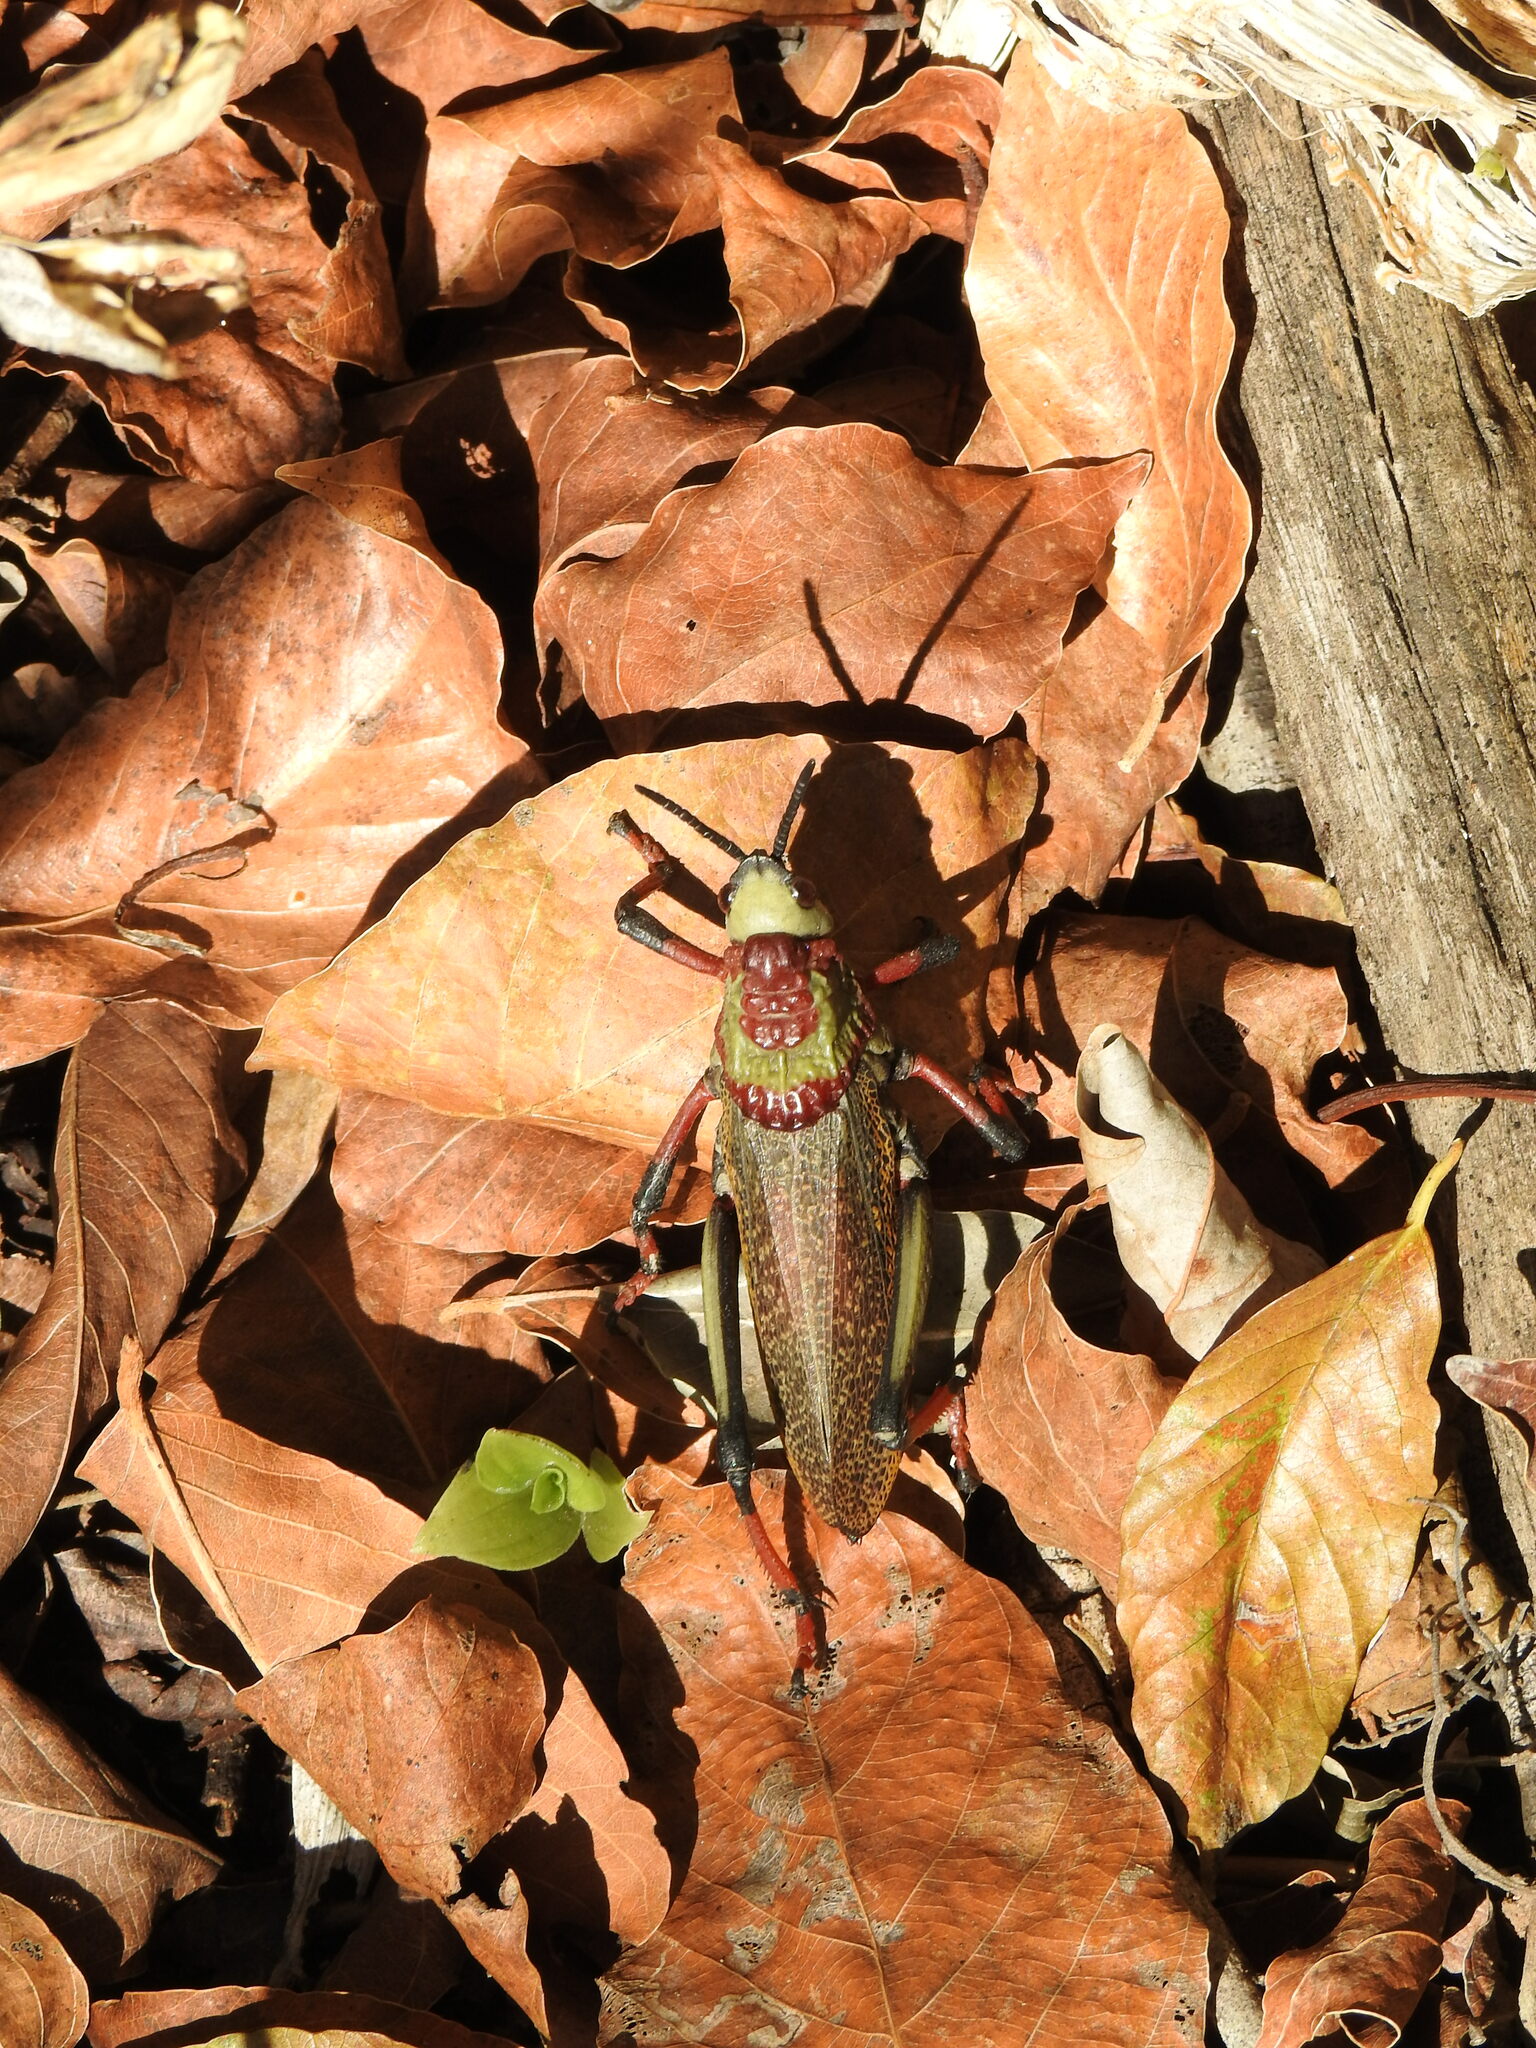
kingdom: Animalia
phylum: Arthropoda
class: Insecta
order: Orthoptera
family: Pyrgomorphidae
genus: Dictyophorus
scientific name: Dictyophorus spumans
